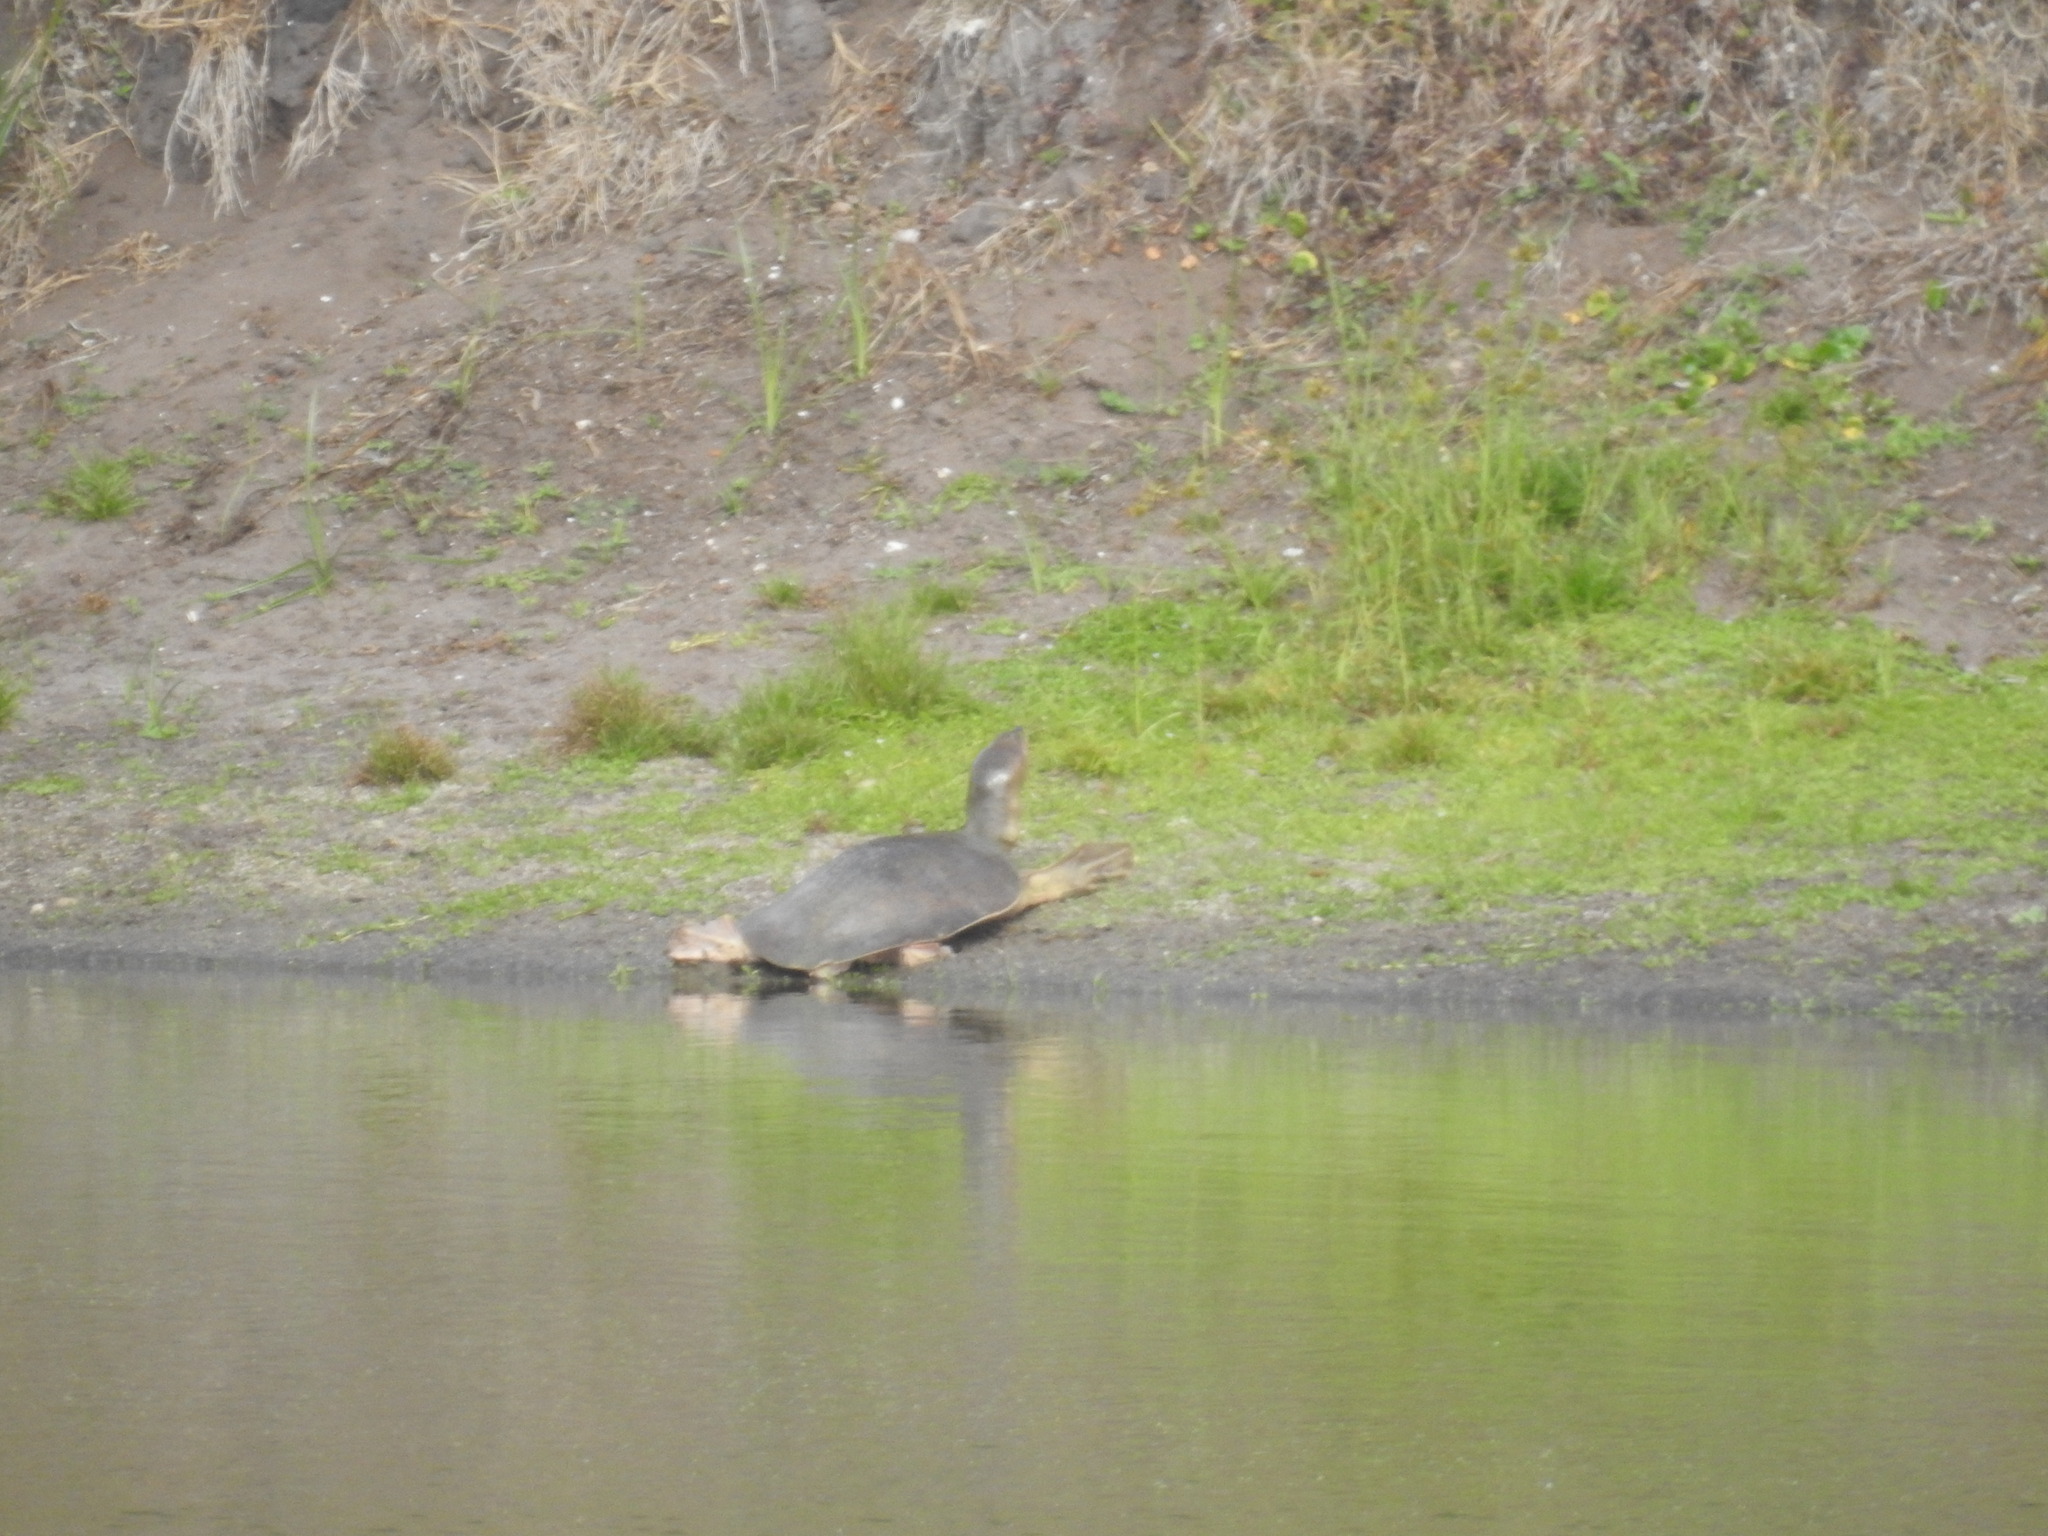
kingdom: Animalia
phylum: Chordata
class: Testudines
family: Trionychidae
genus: Apalone
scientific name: Apalone ferox
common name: Florida softshell turtle
